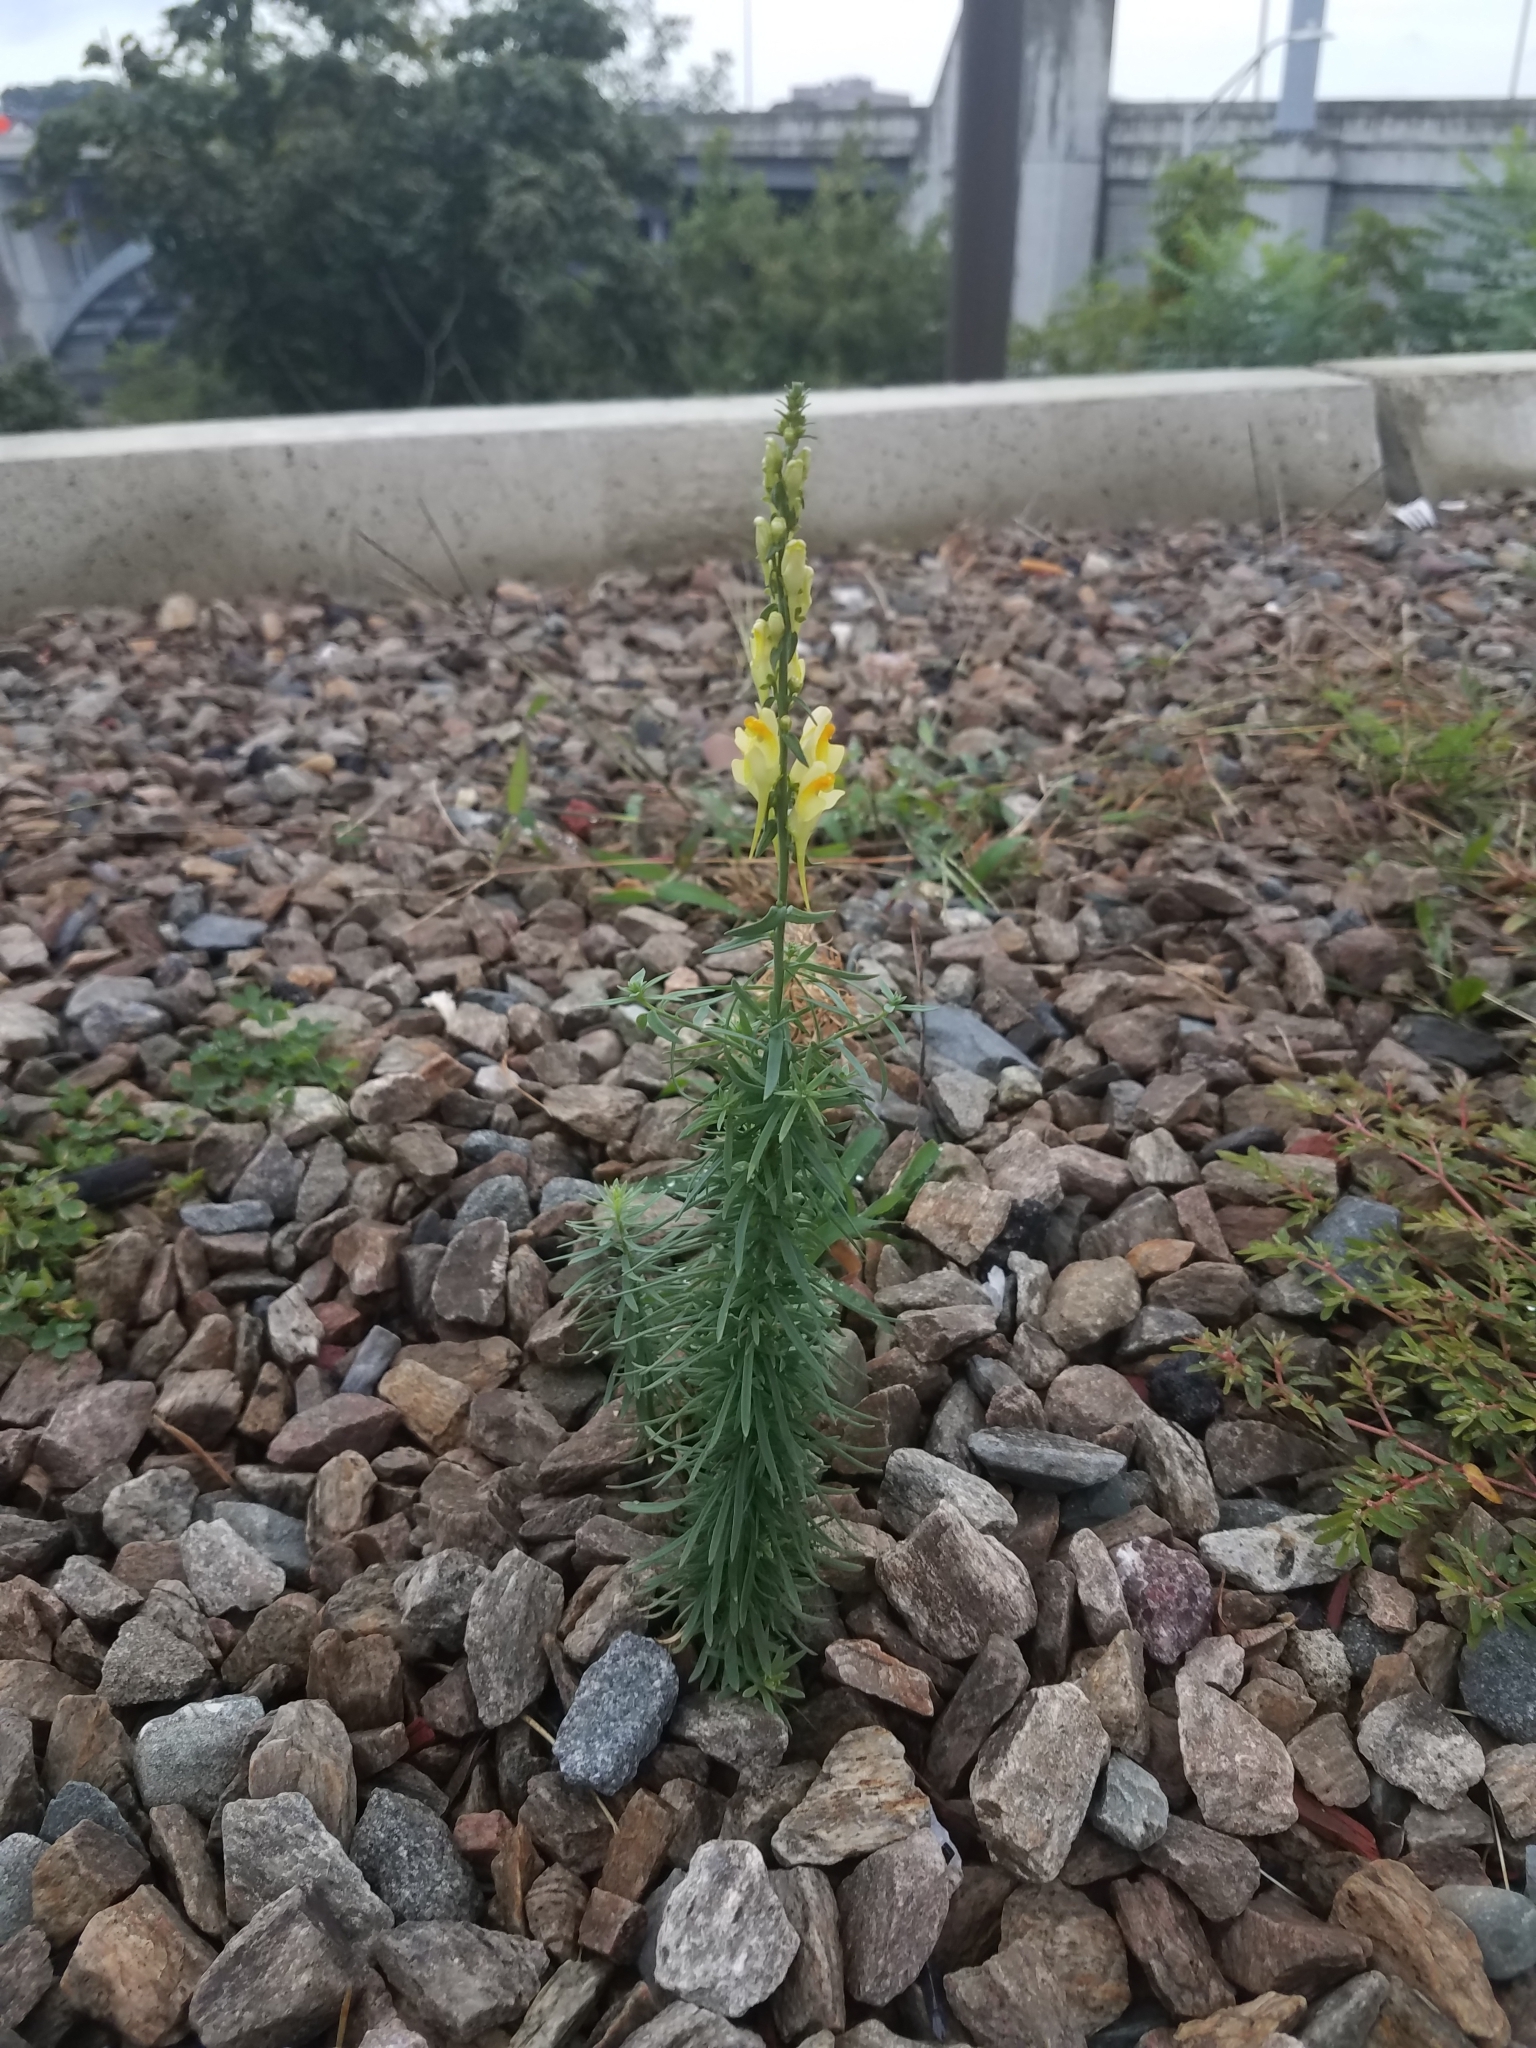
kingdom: Plantae
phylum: Tracheophyta
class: Magnoliopsida
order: Lamiales
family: Plantaginaceae
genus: Linaria
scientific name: Linaria vulgaris
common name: Butter and eggs
